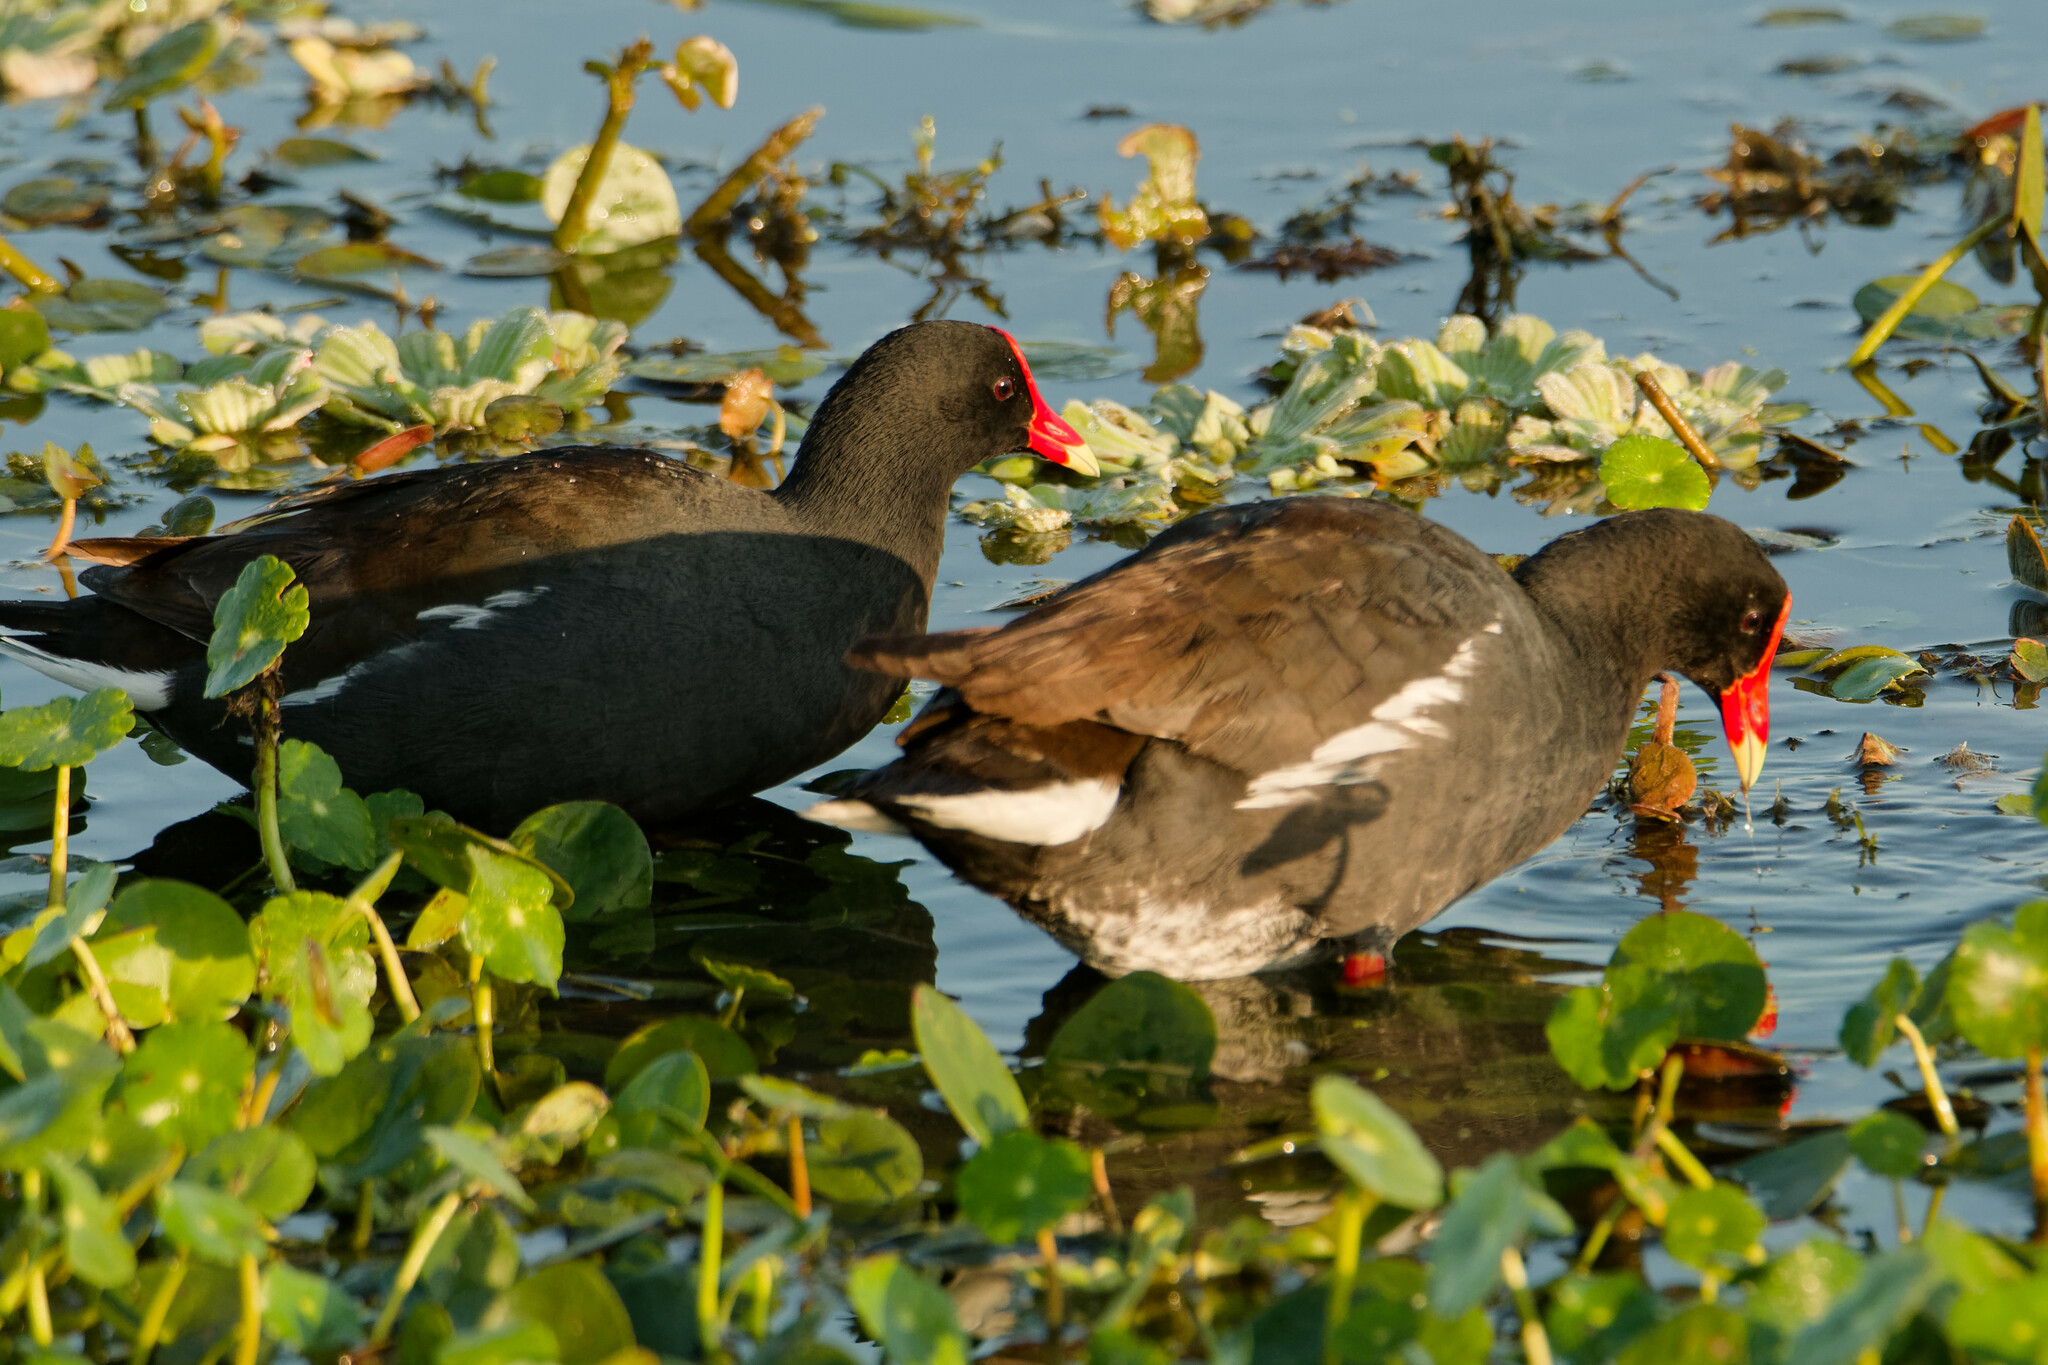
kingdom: Animalia
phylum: Chordata
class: Aves
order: Gruiformes
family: Rallidae
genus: Gallinula
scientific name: Gallinula chloropus
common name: Common moorhen
